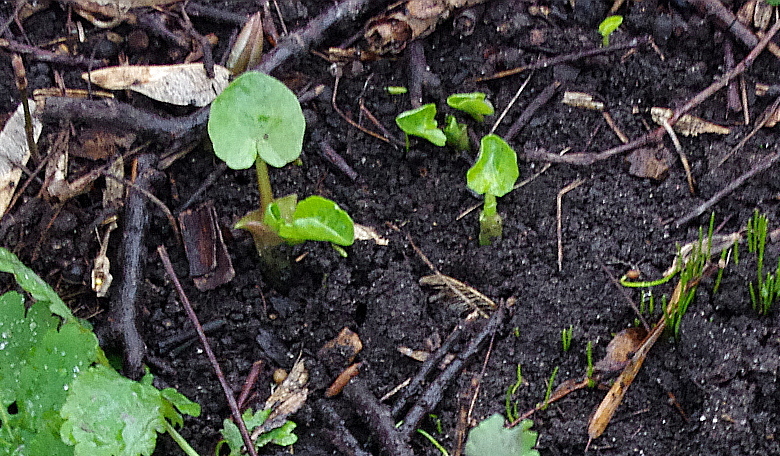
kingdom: Plantae
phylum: Tracheophyta
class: Magnoliopsida
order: Ranunculales
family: Ranunculaceae
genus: Ficaria
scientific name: Ficaria verna
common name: Lesser celandine
